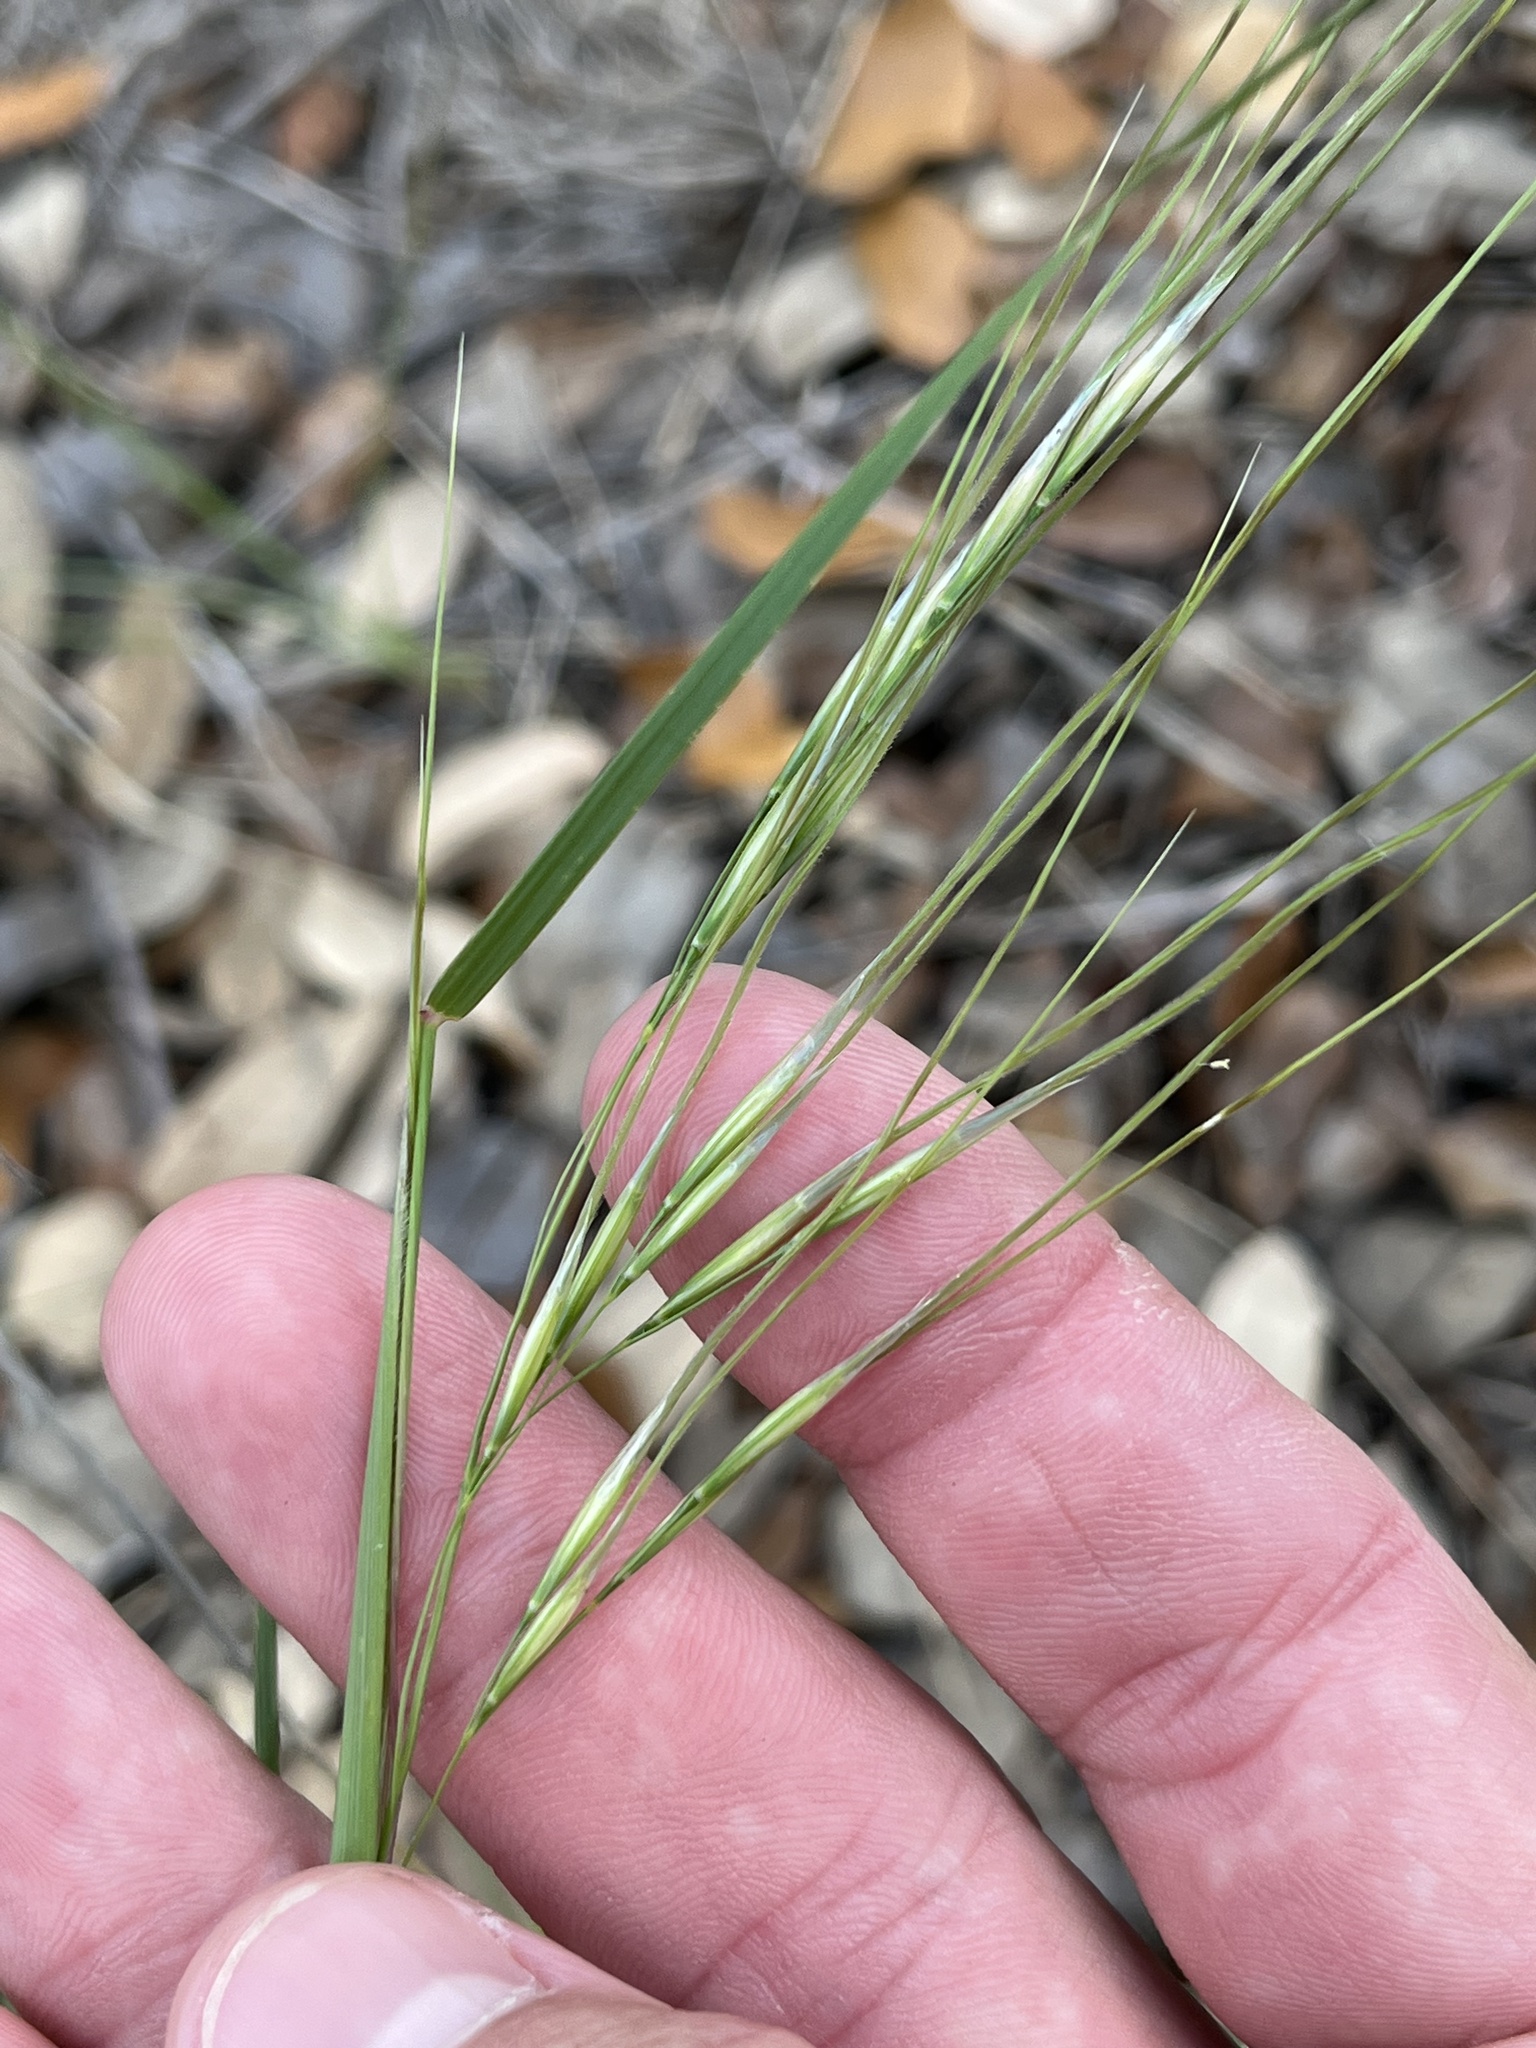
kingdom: Plantae
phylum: Tracheophyta
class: Liliopsida
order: Poales
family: Poaceae
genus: Nassella
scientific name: Nassella leucotricha
